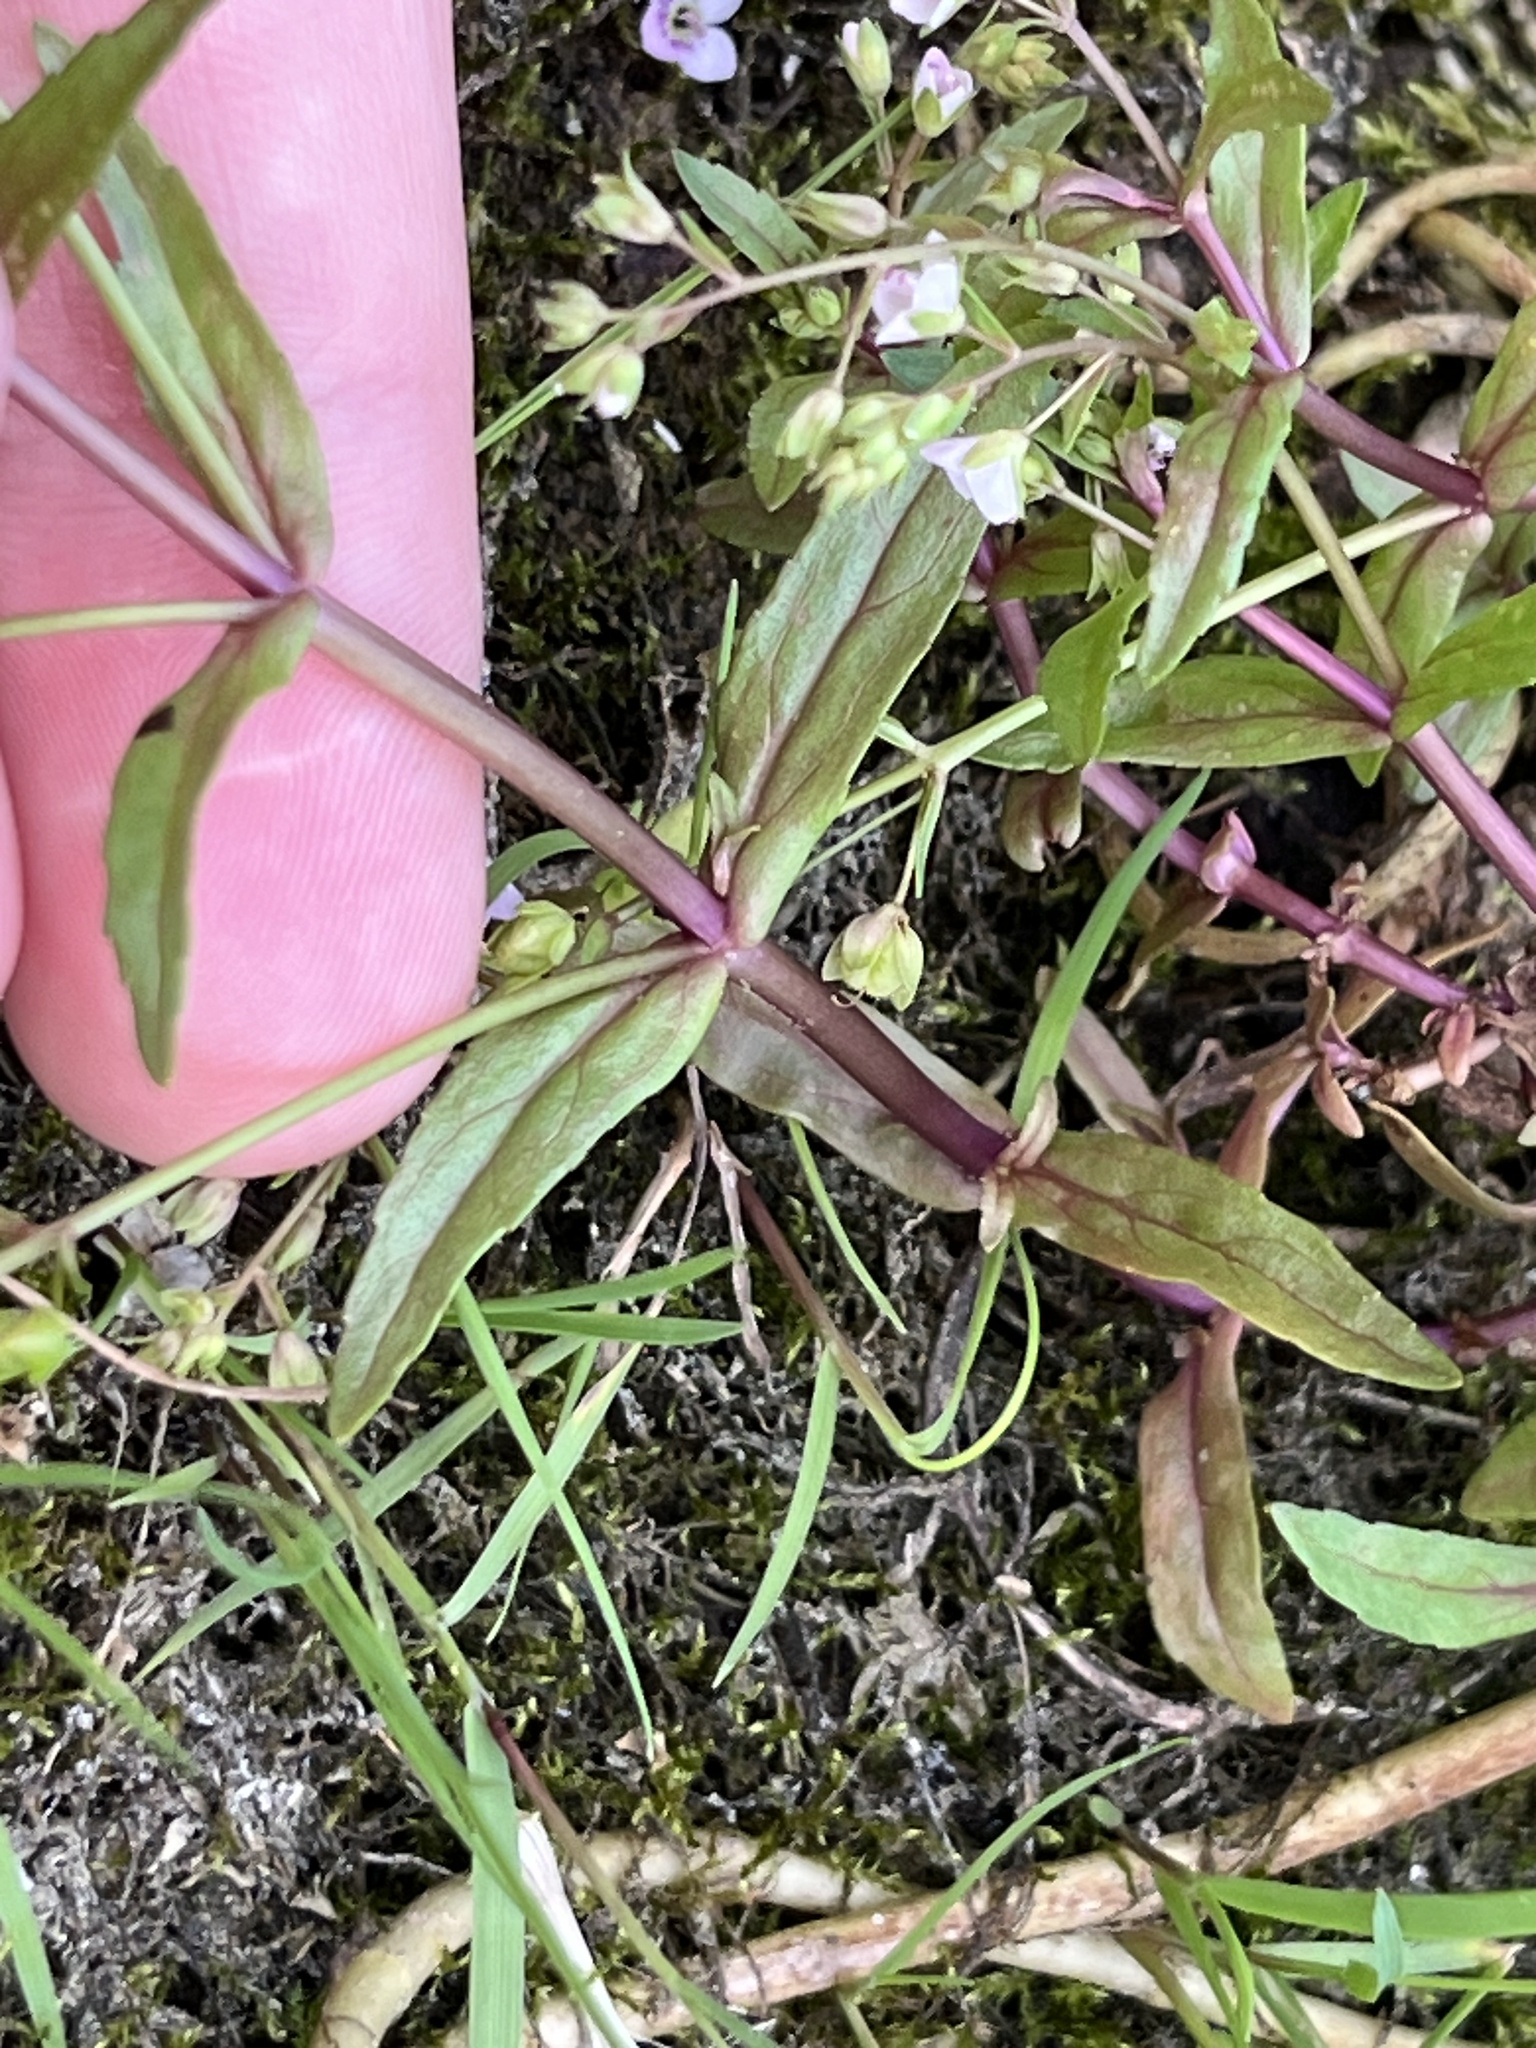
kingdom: Plantae
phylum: Tracheophyta
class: Magnoliopsida
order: Lamiales
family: Plantaginaceae
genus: Veronica
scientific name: Veronica catenata
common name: Pink water-speedwell
